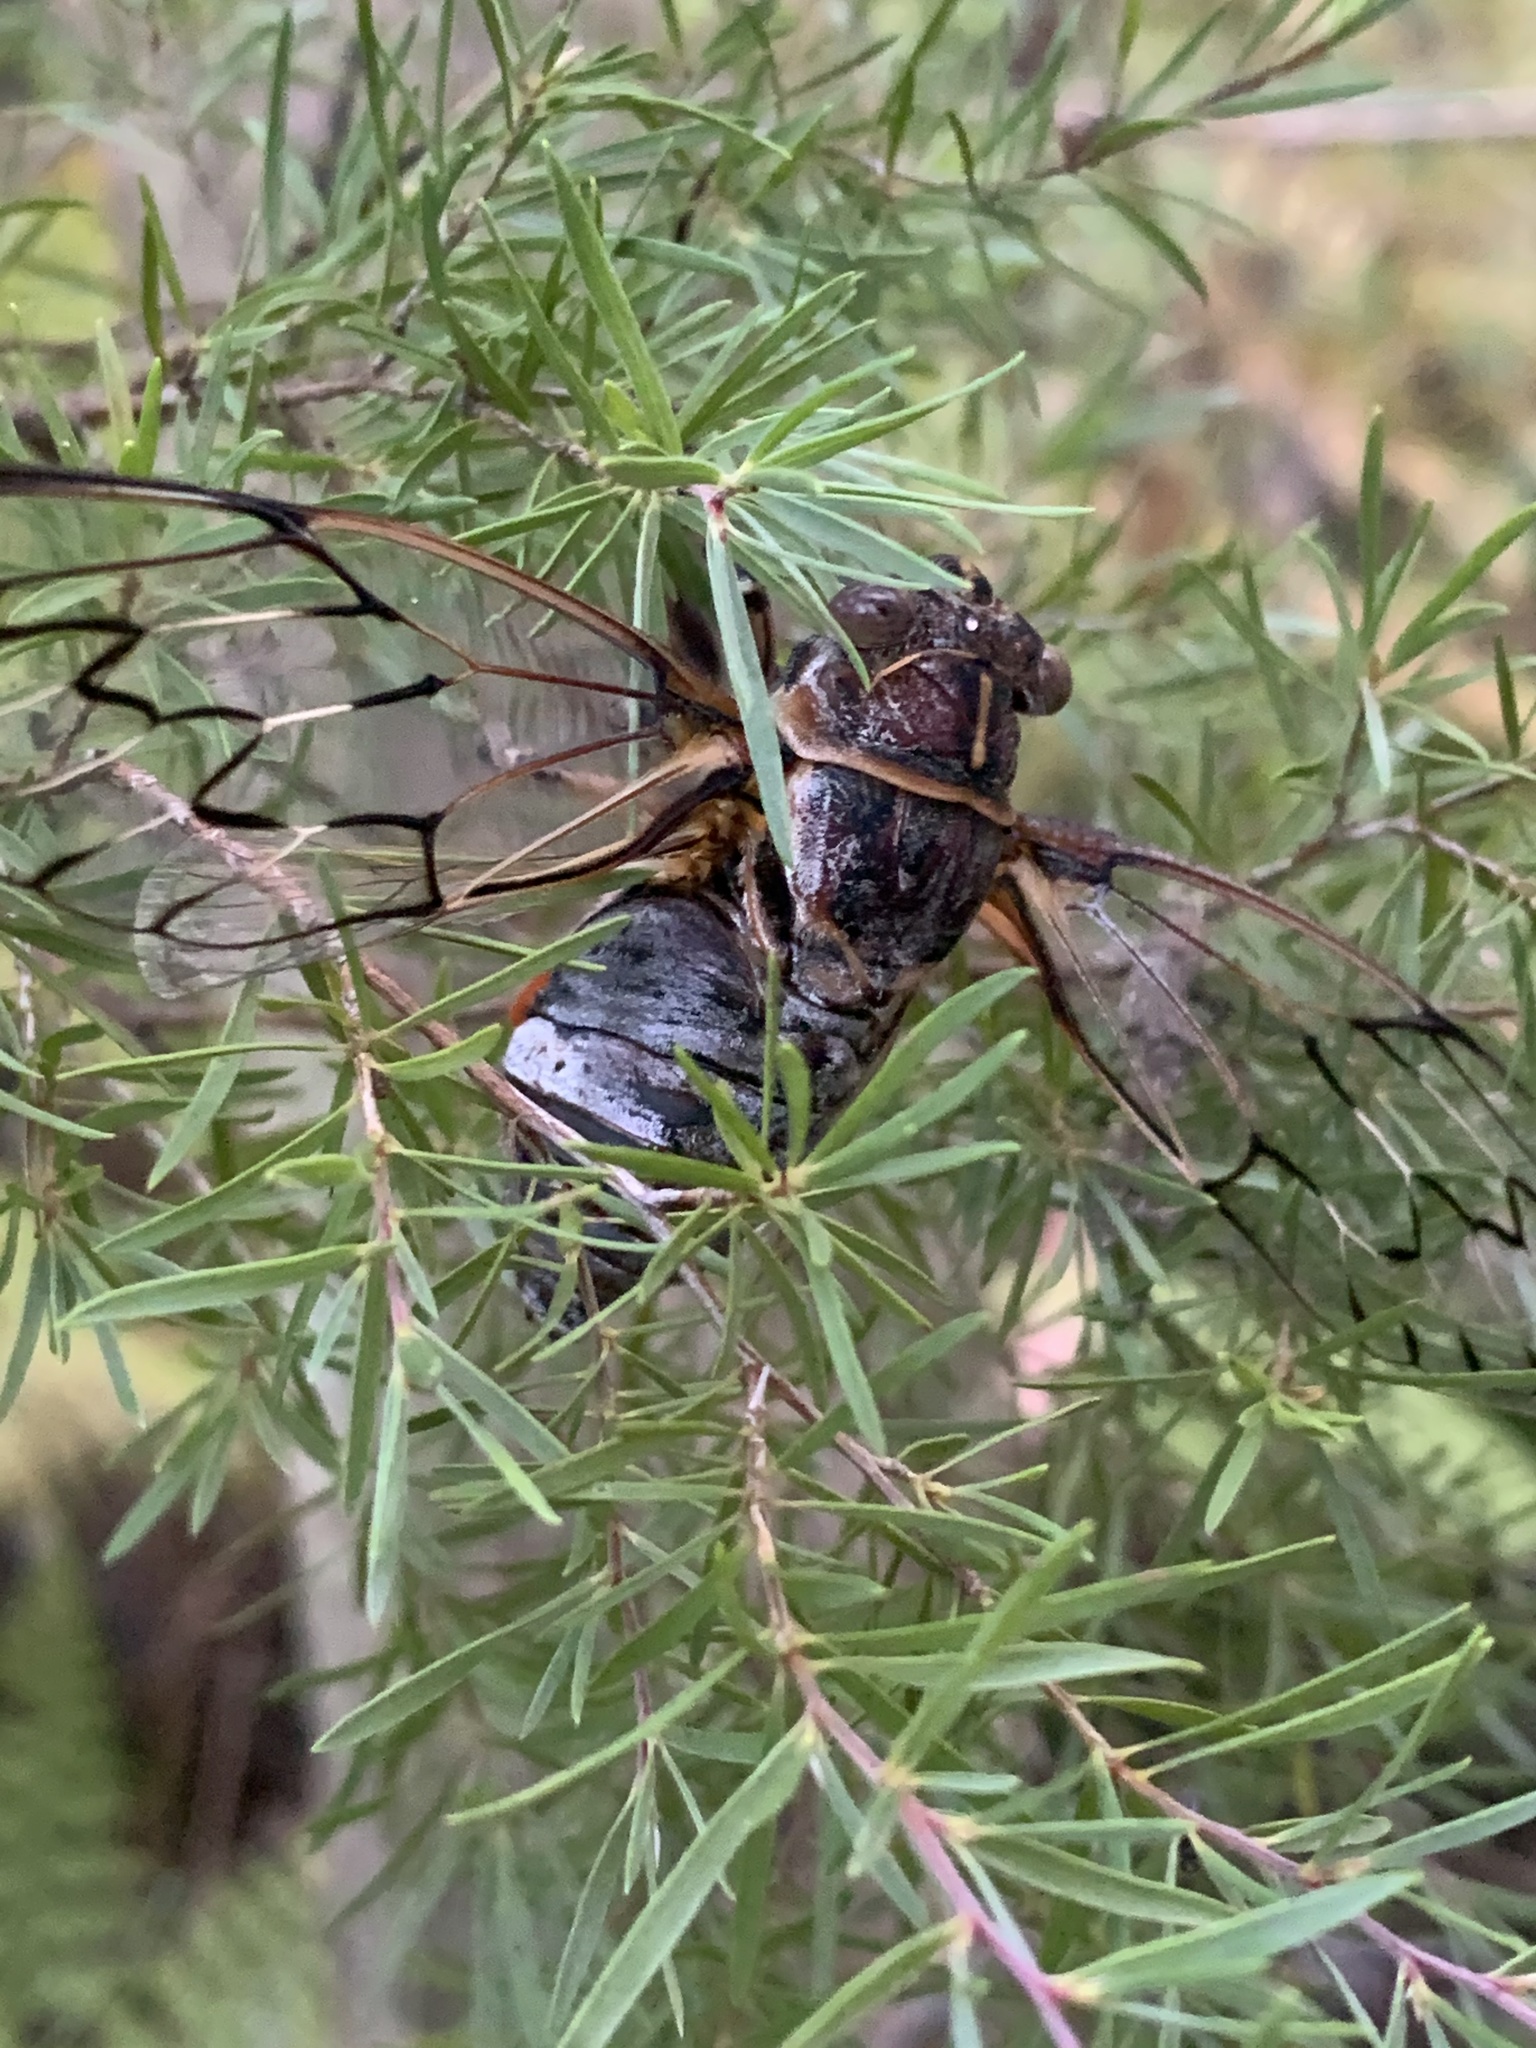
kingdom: Animalia
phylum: Arthropoda
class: Insecta
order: Hemiptera
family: Cicadidae
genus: Henicopsaltria
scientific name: Henicopsaltria eydouxii
